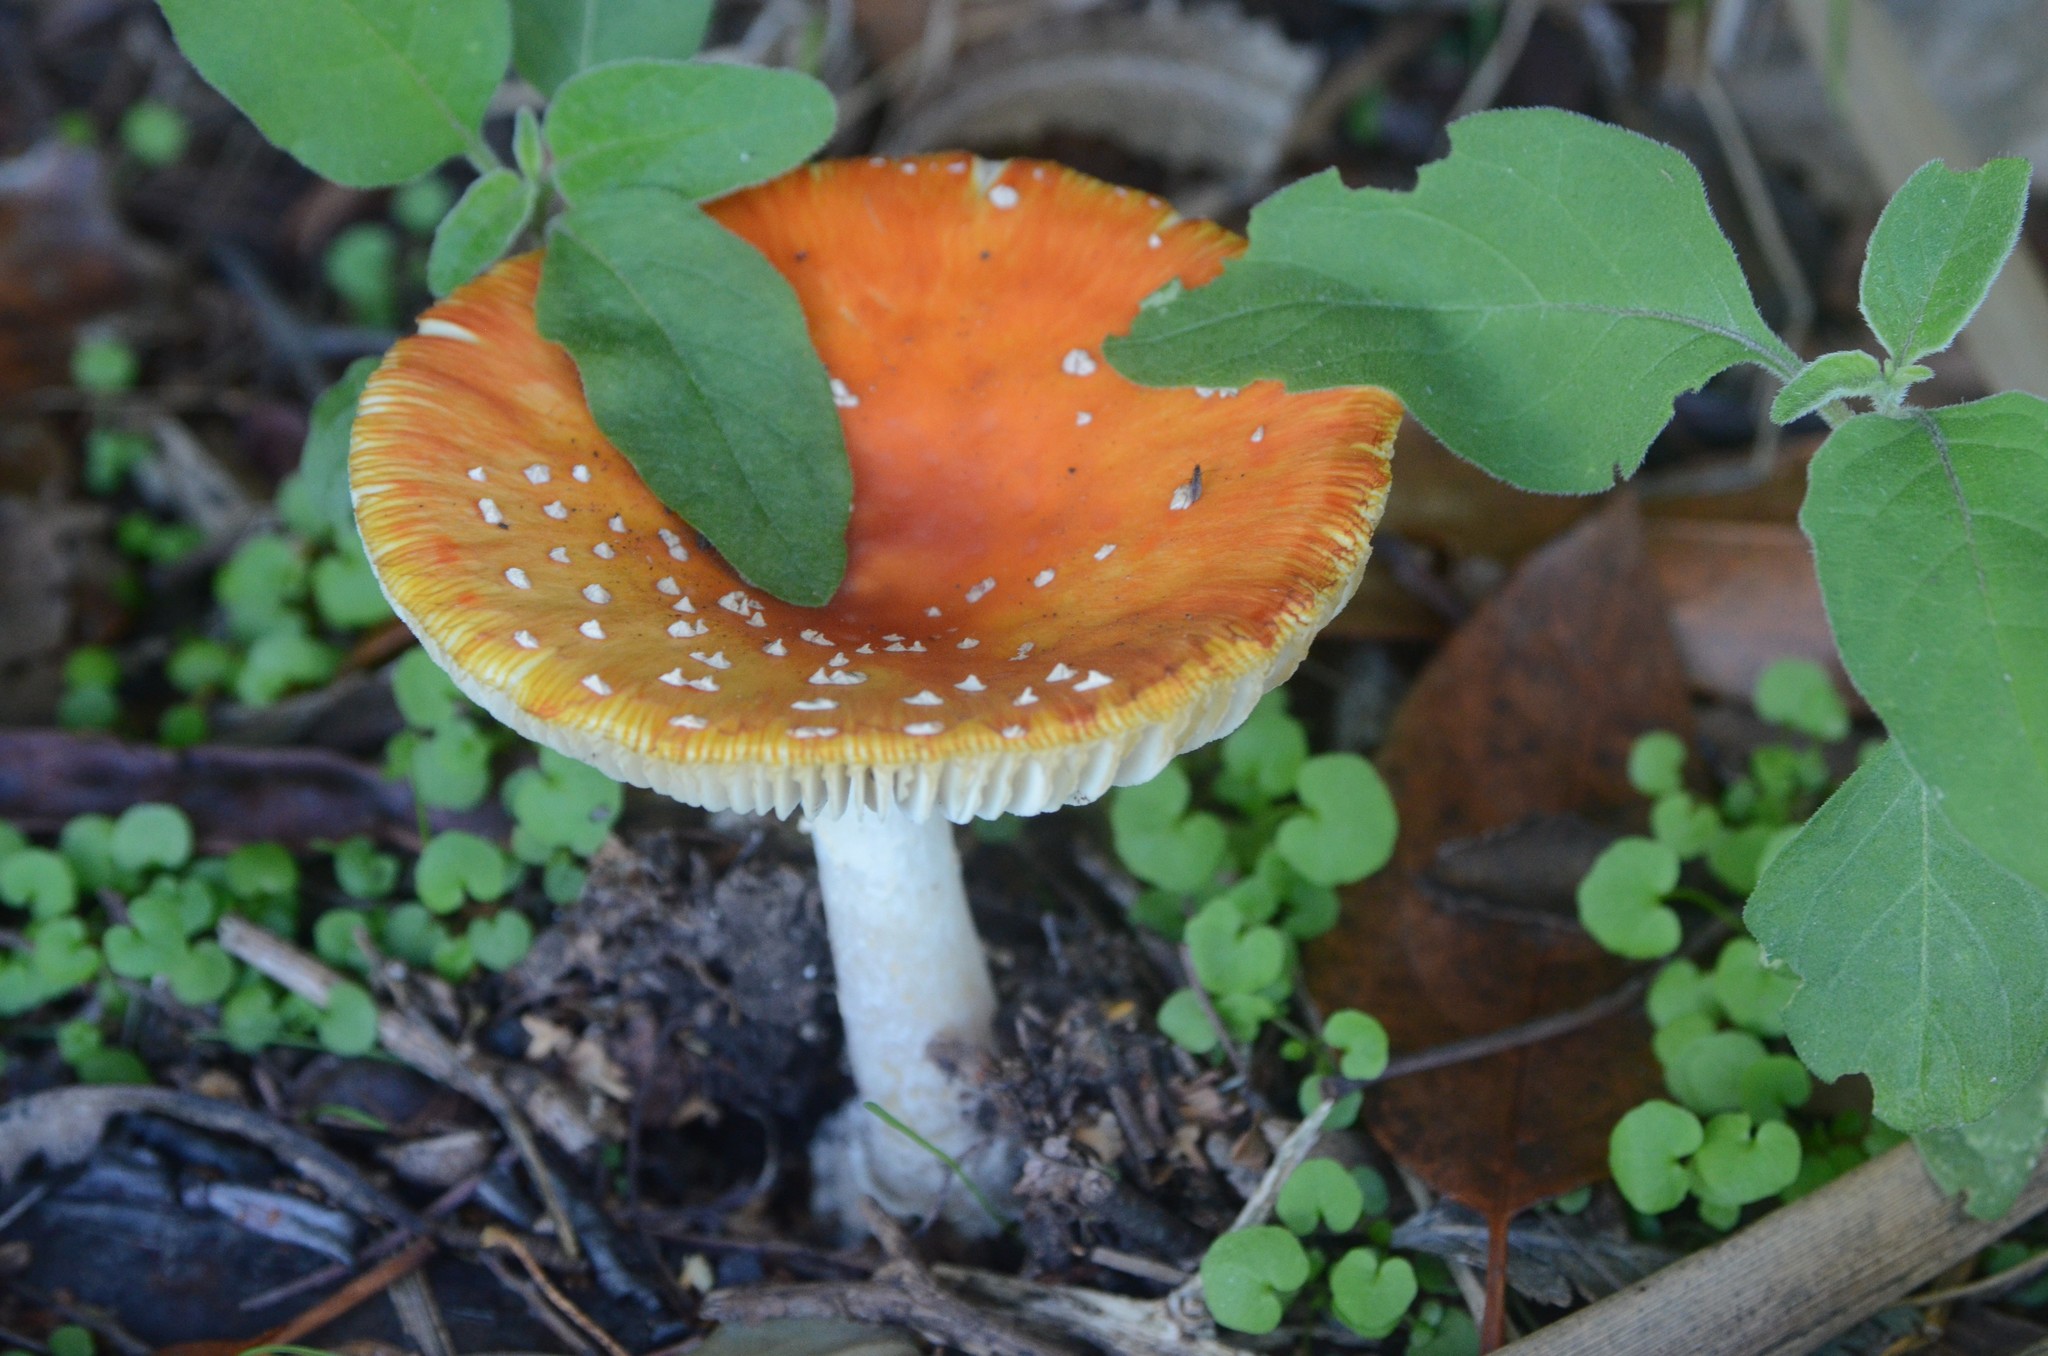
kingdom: Fungi
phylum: Basidiomycota
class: Agaricomycetes
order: Agaricales
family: Amanitaceae
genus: Amanita
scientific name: Amanita muscaria
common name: Fly agaric
